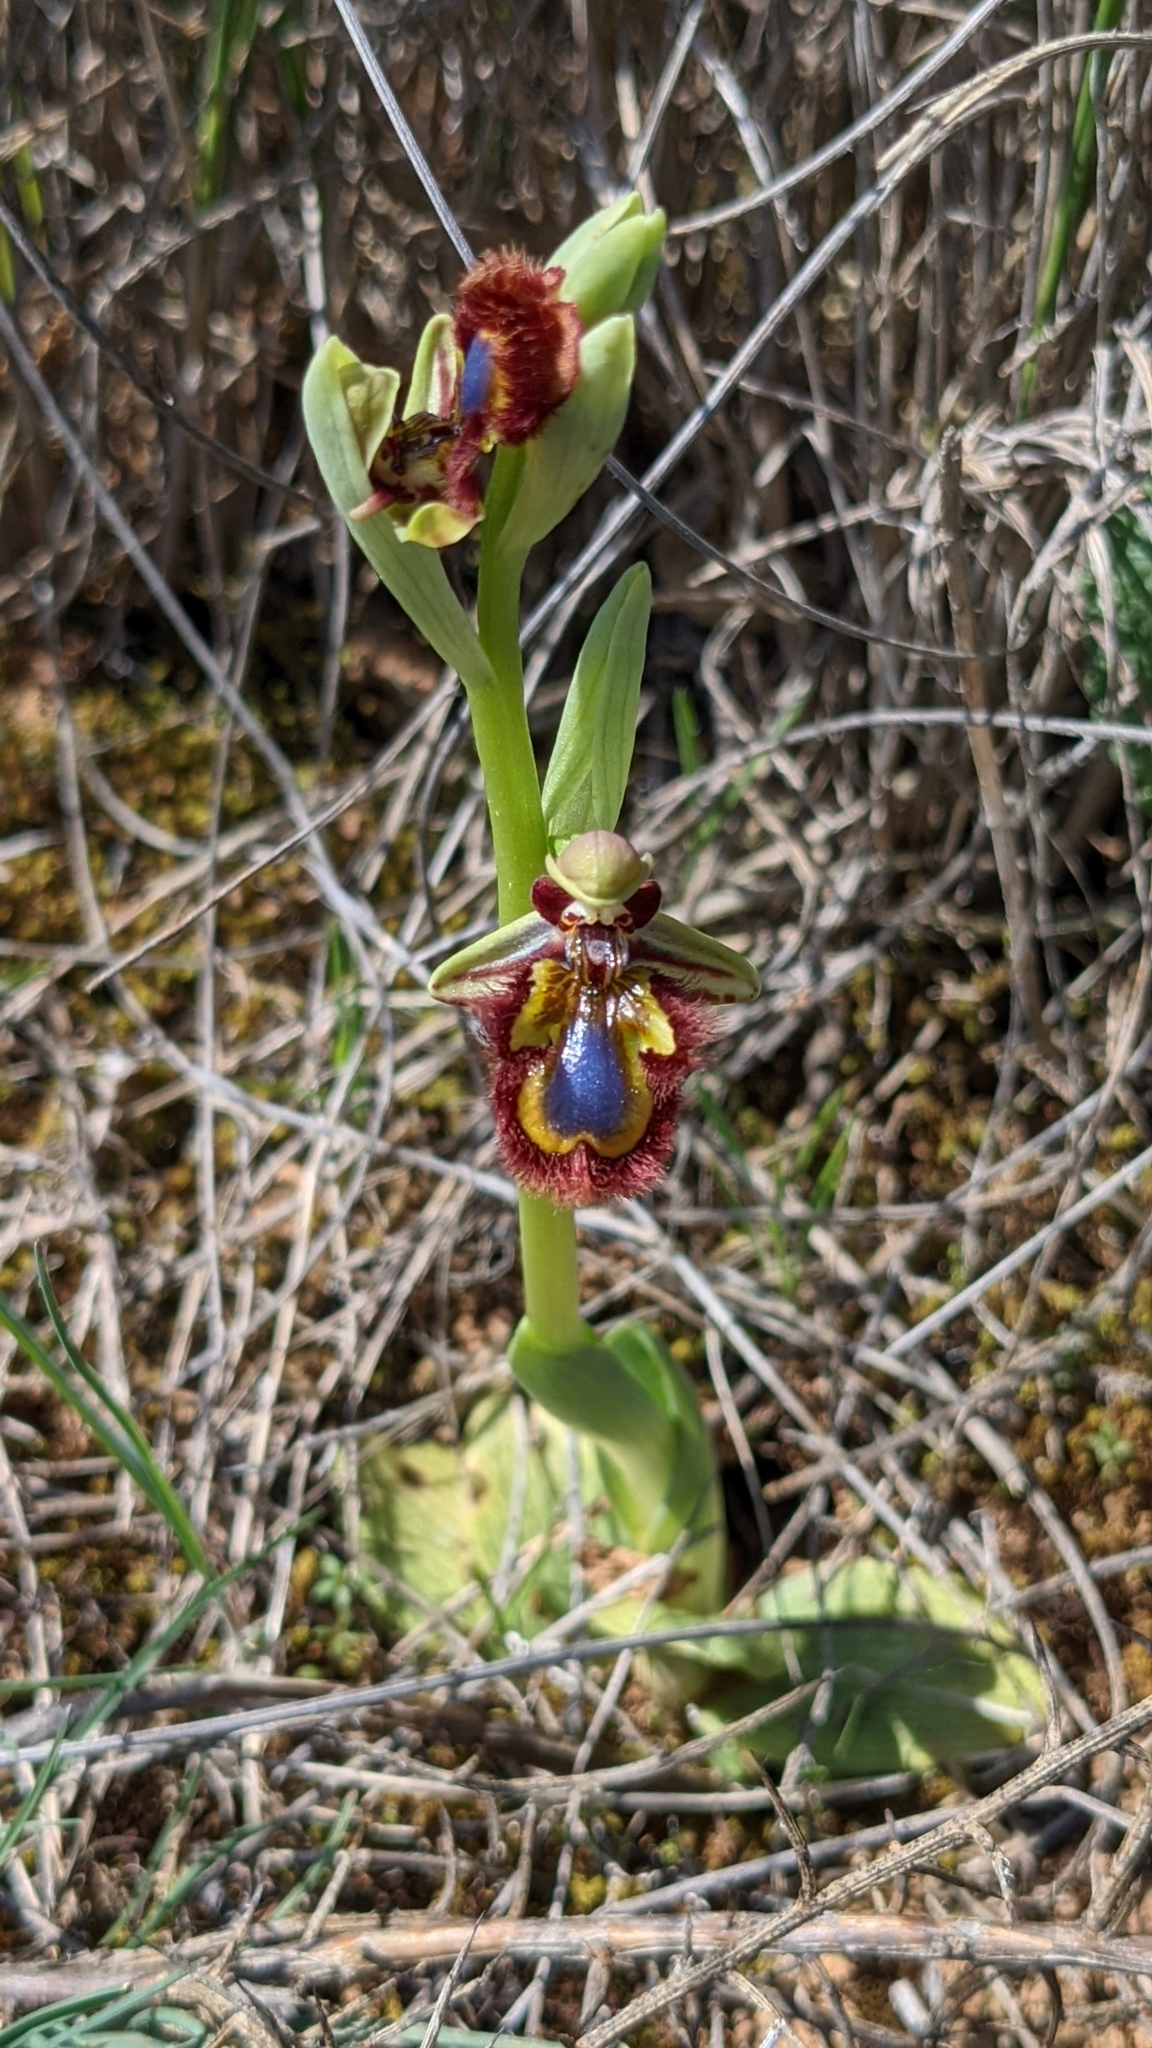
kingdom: Plantae
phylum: Tracheophyta
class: Liliopsida
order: Asparagales
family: Orchidaceae
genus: Ophrys
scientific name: Ophrys speculum
